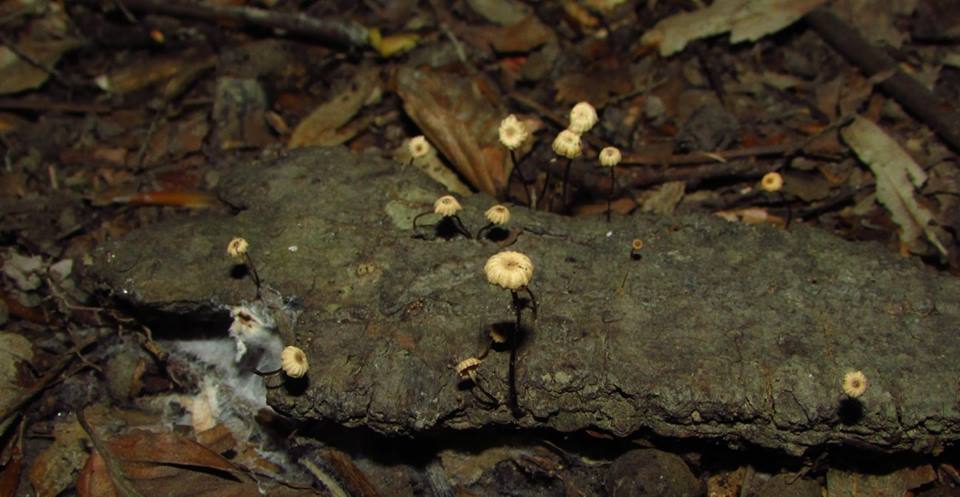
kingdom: Fungi
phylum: Basidiomycota
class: Agaricomycetes
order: Agaricales
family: Marasmiaceae
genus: Marasmius
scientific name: Marasmius rotula
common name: Collared parachute
